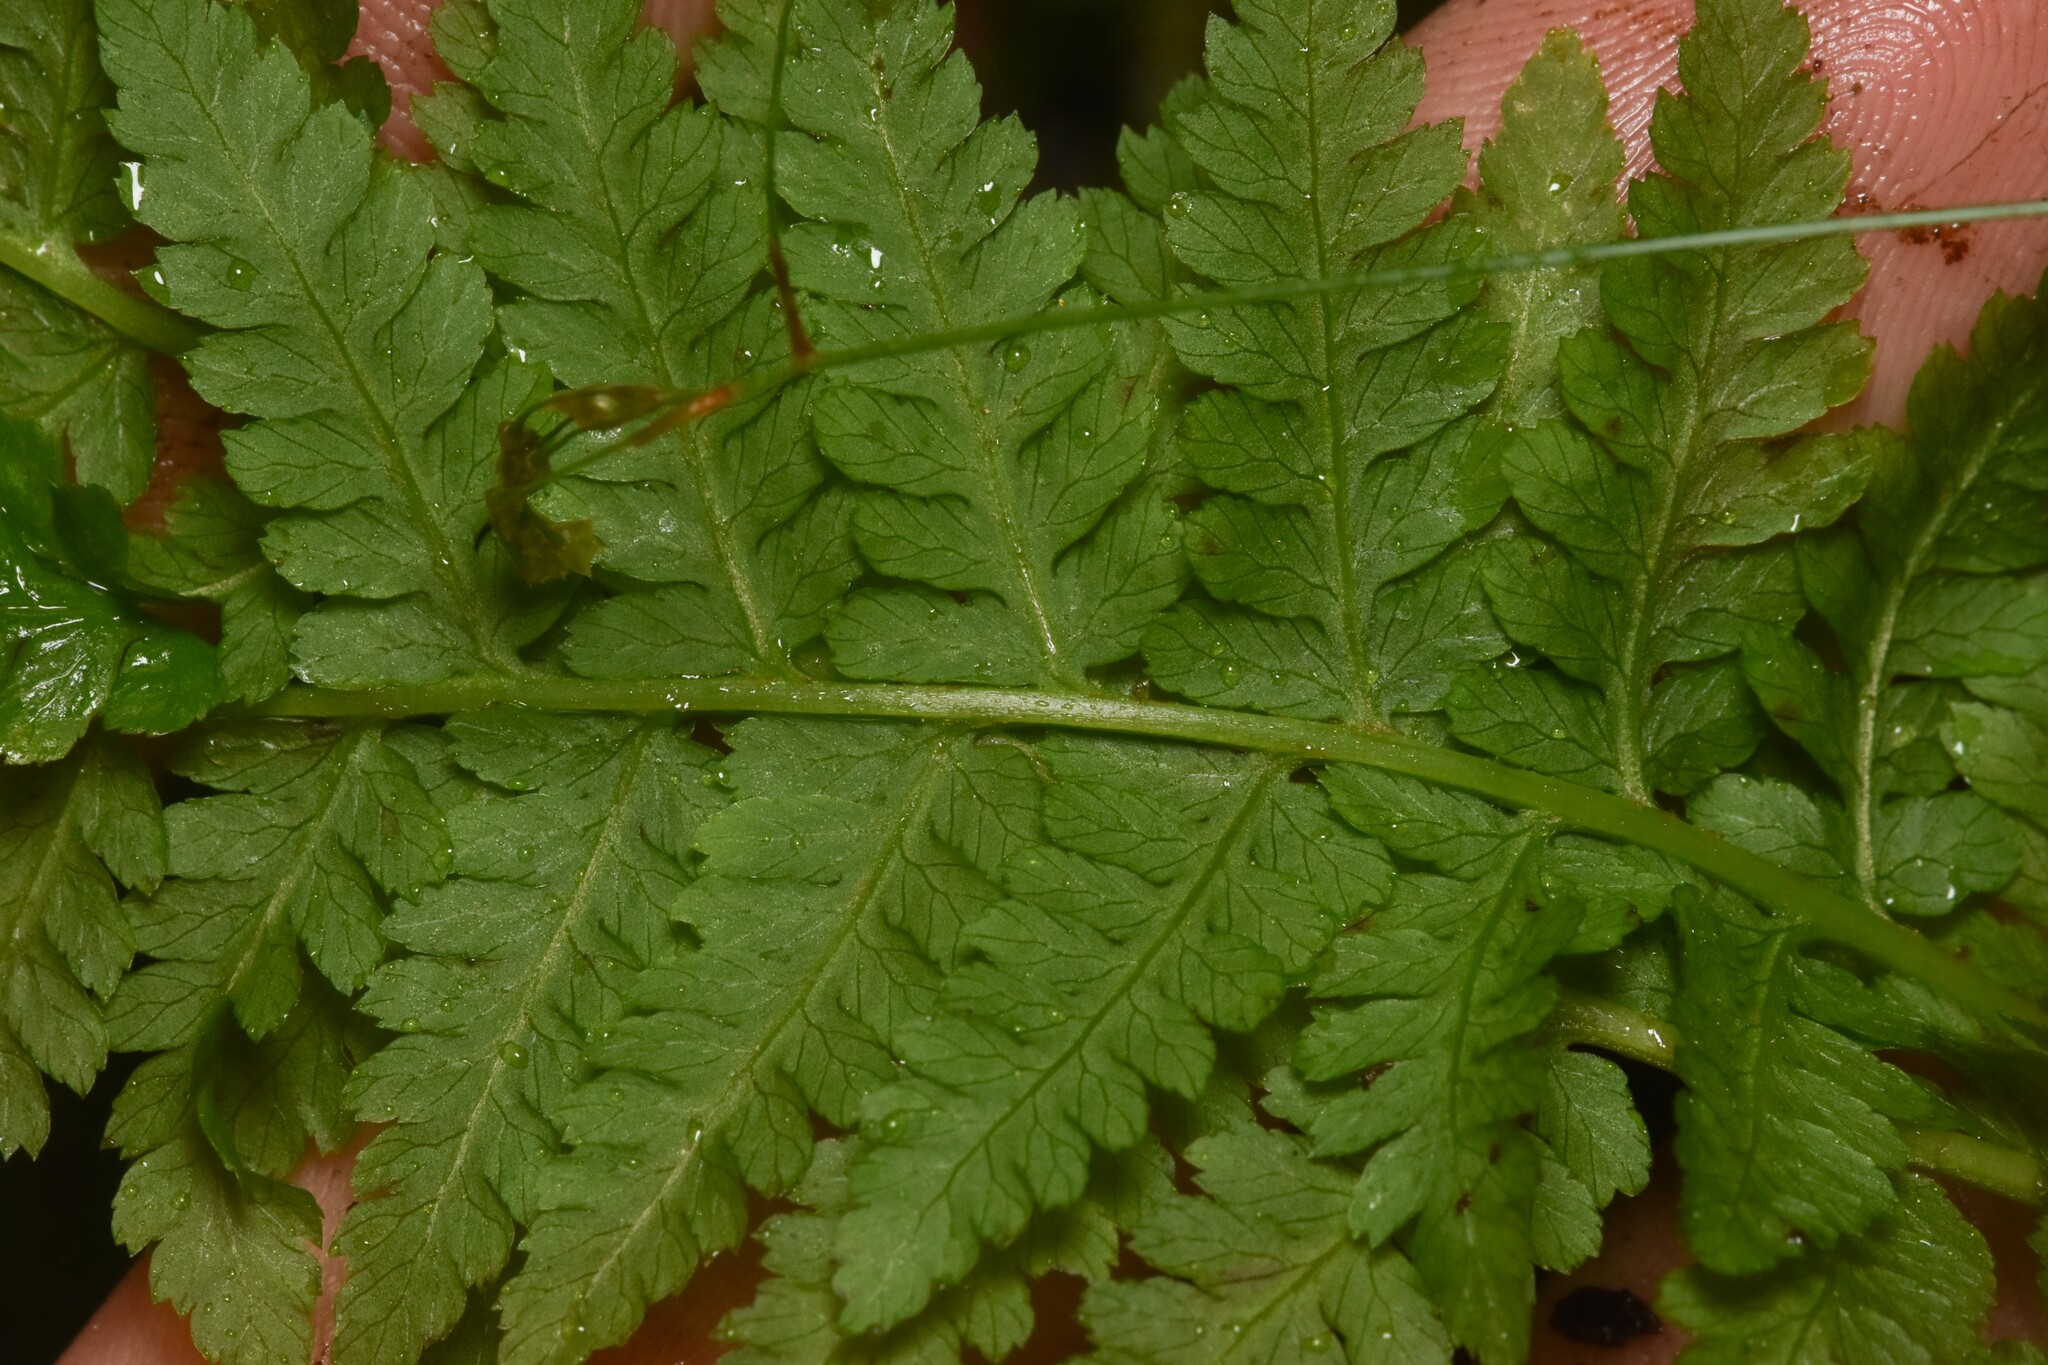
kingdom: Plantae
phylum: Tracheophyta
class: Polypodiopsida
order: Polypodiales
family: Athyriaceae
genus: Athyrium
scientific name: Athyrium filix-femina
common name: Lady fern
